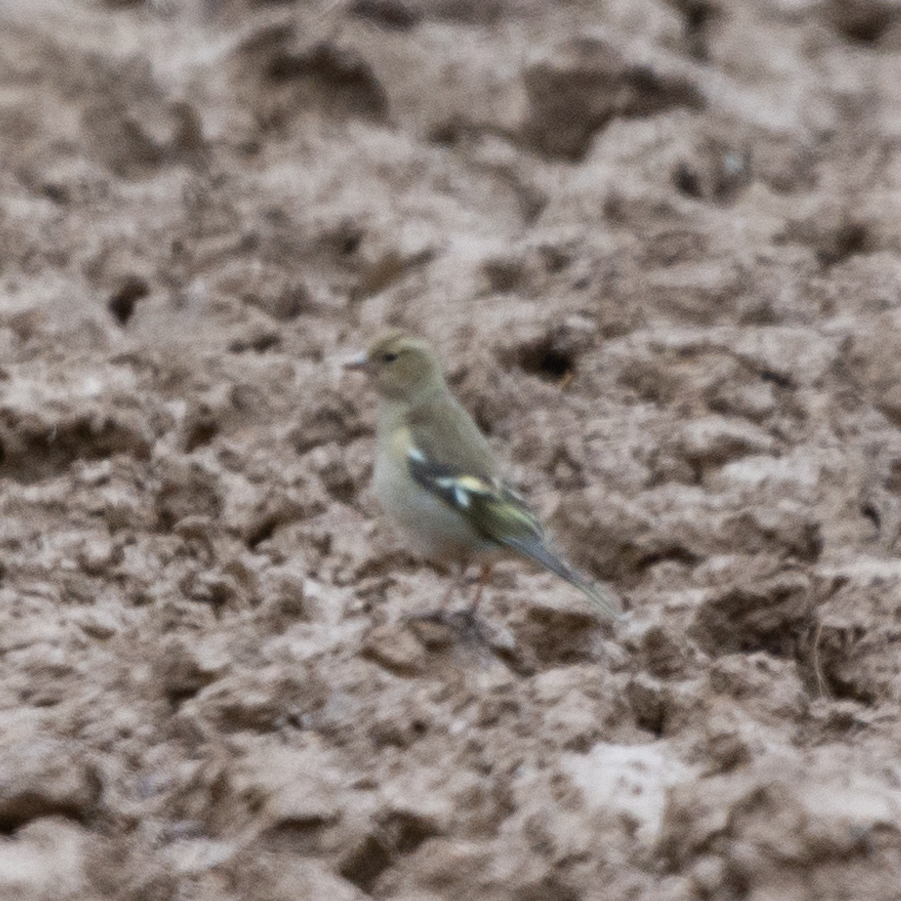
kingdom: Animalia
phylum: Chordata
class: Aves
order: Passeriformes
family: Fringillidae
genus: Fringilla
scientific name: Fringilla coelebs
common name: Common chaffinch
